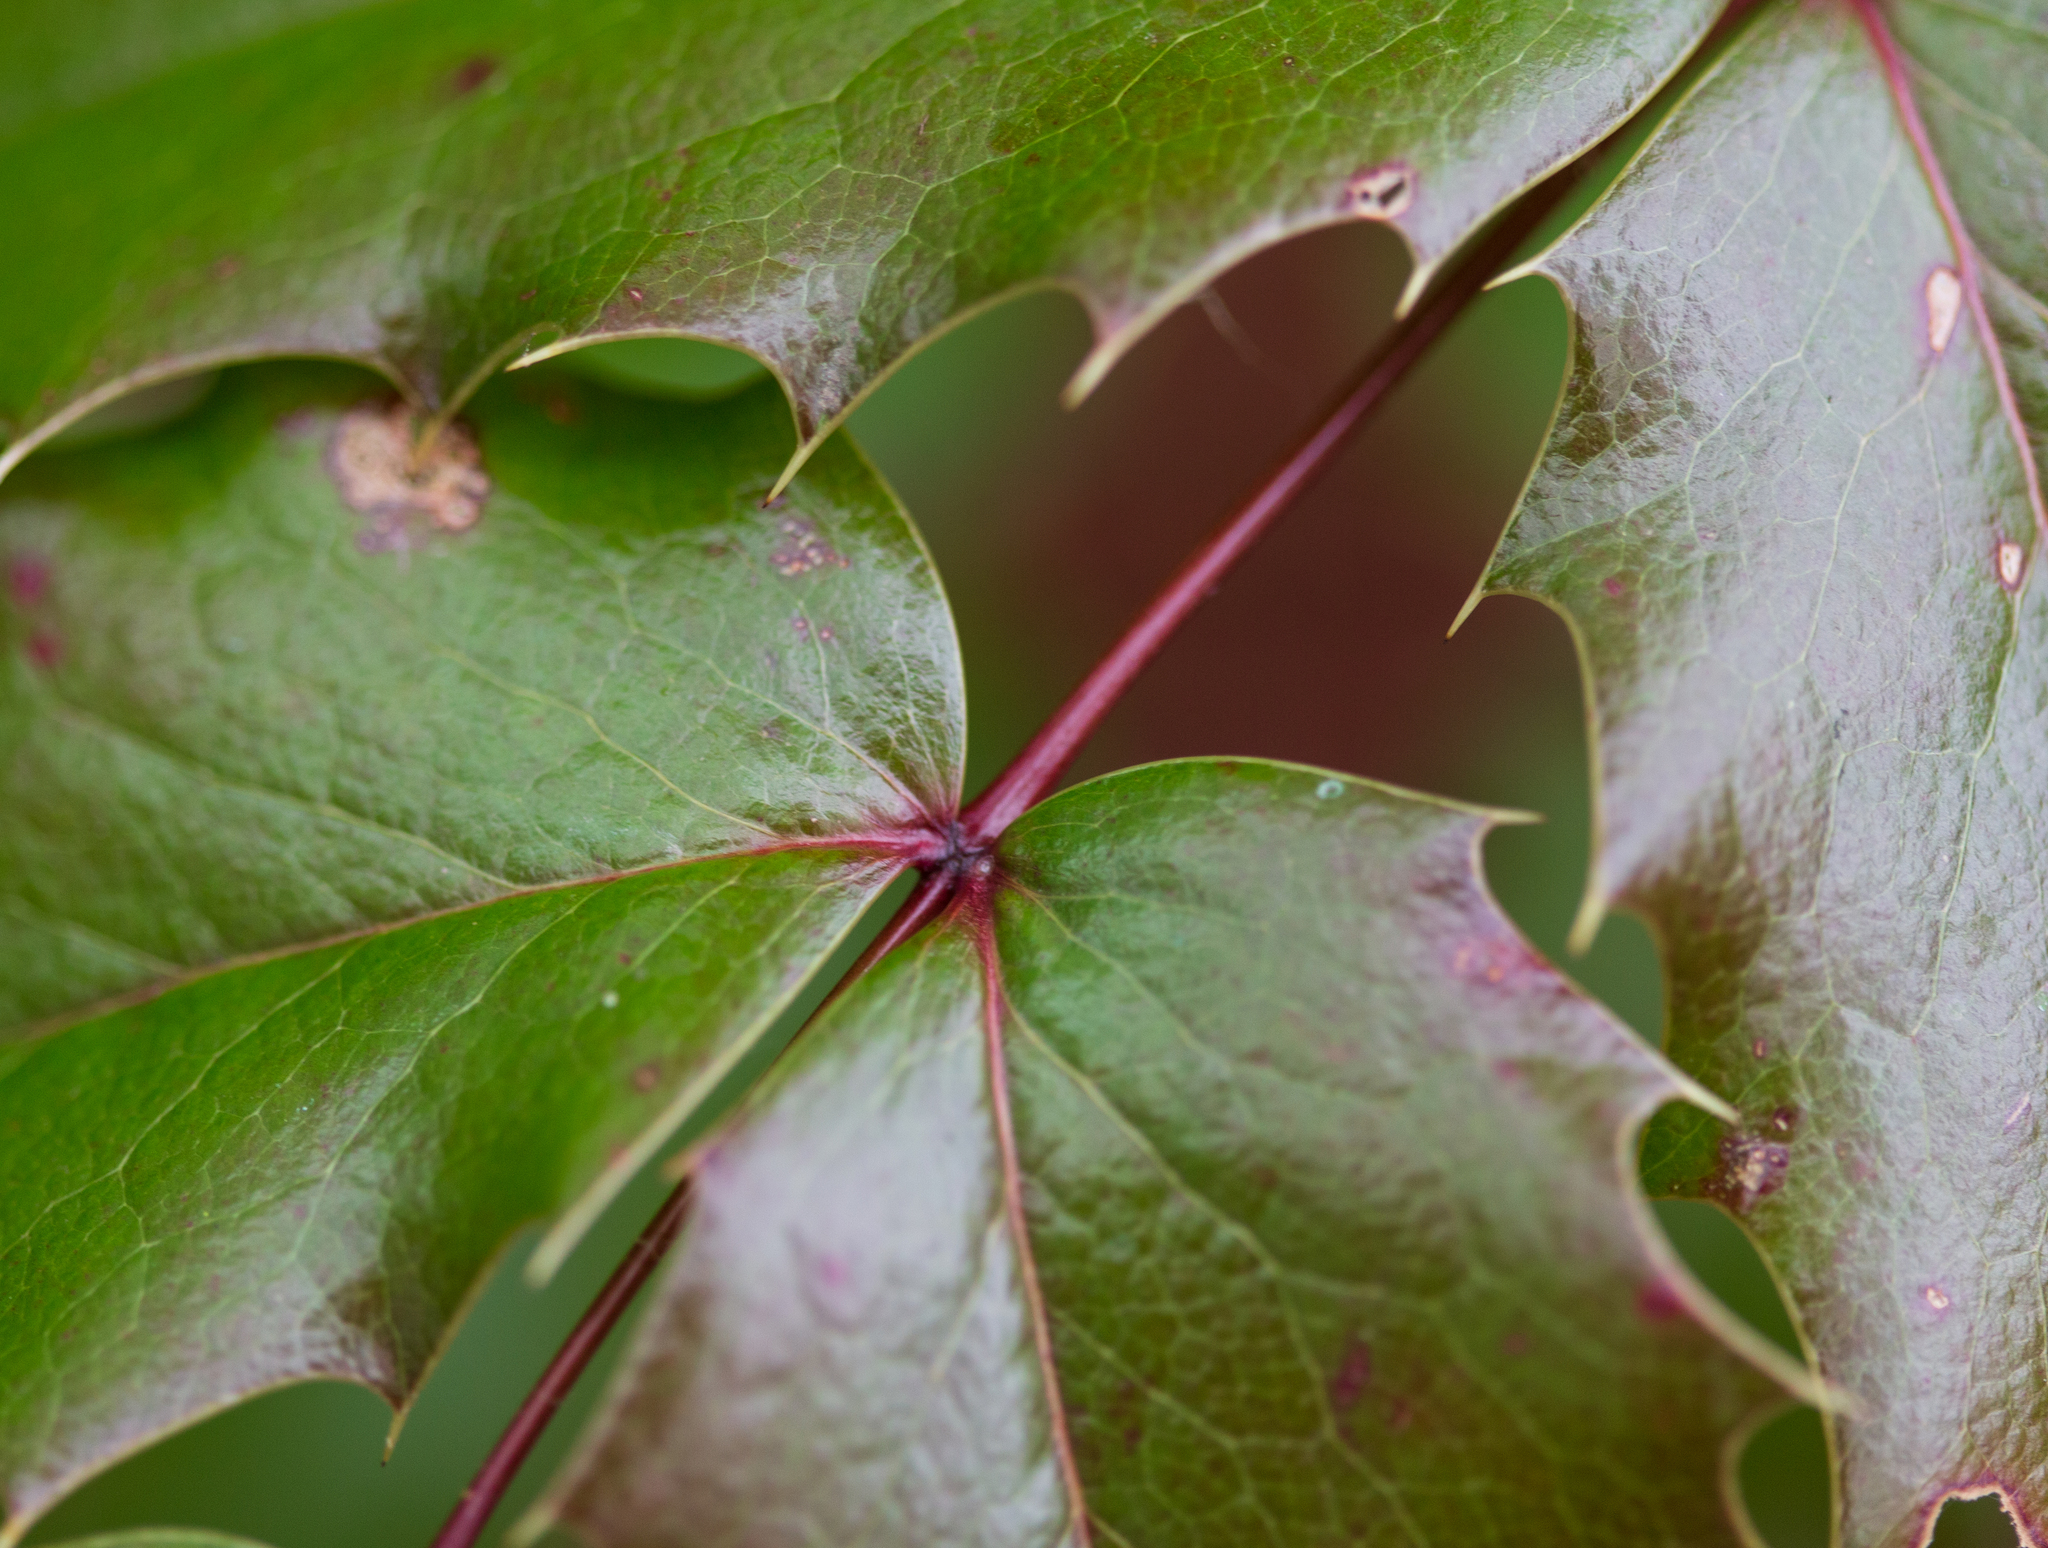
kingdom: Plantae
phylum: Tracheophyta
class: Magnoliopsida
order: Ranunculales
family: Berberidaceae
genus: Mahonia
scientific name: Mahonia aquifolium
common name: Oregon-grape
